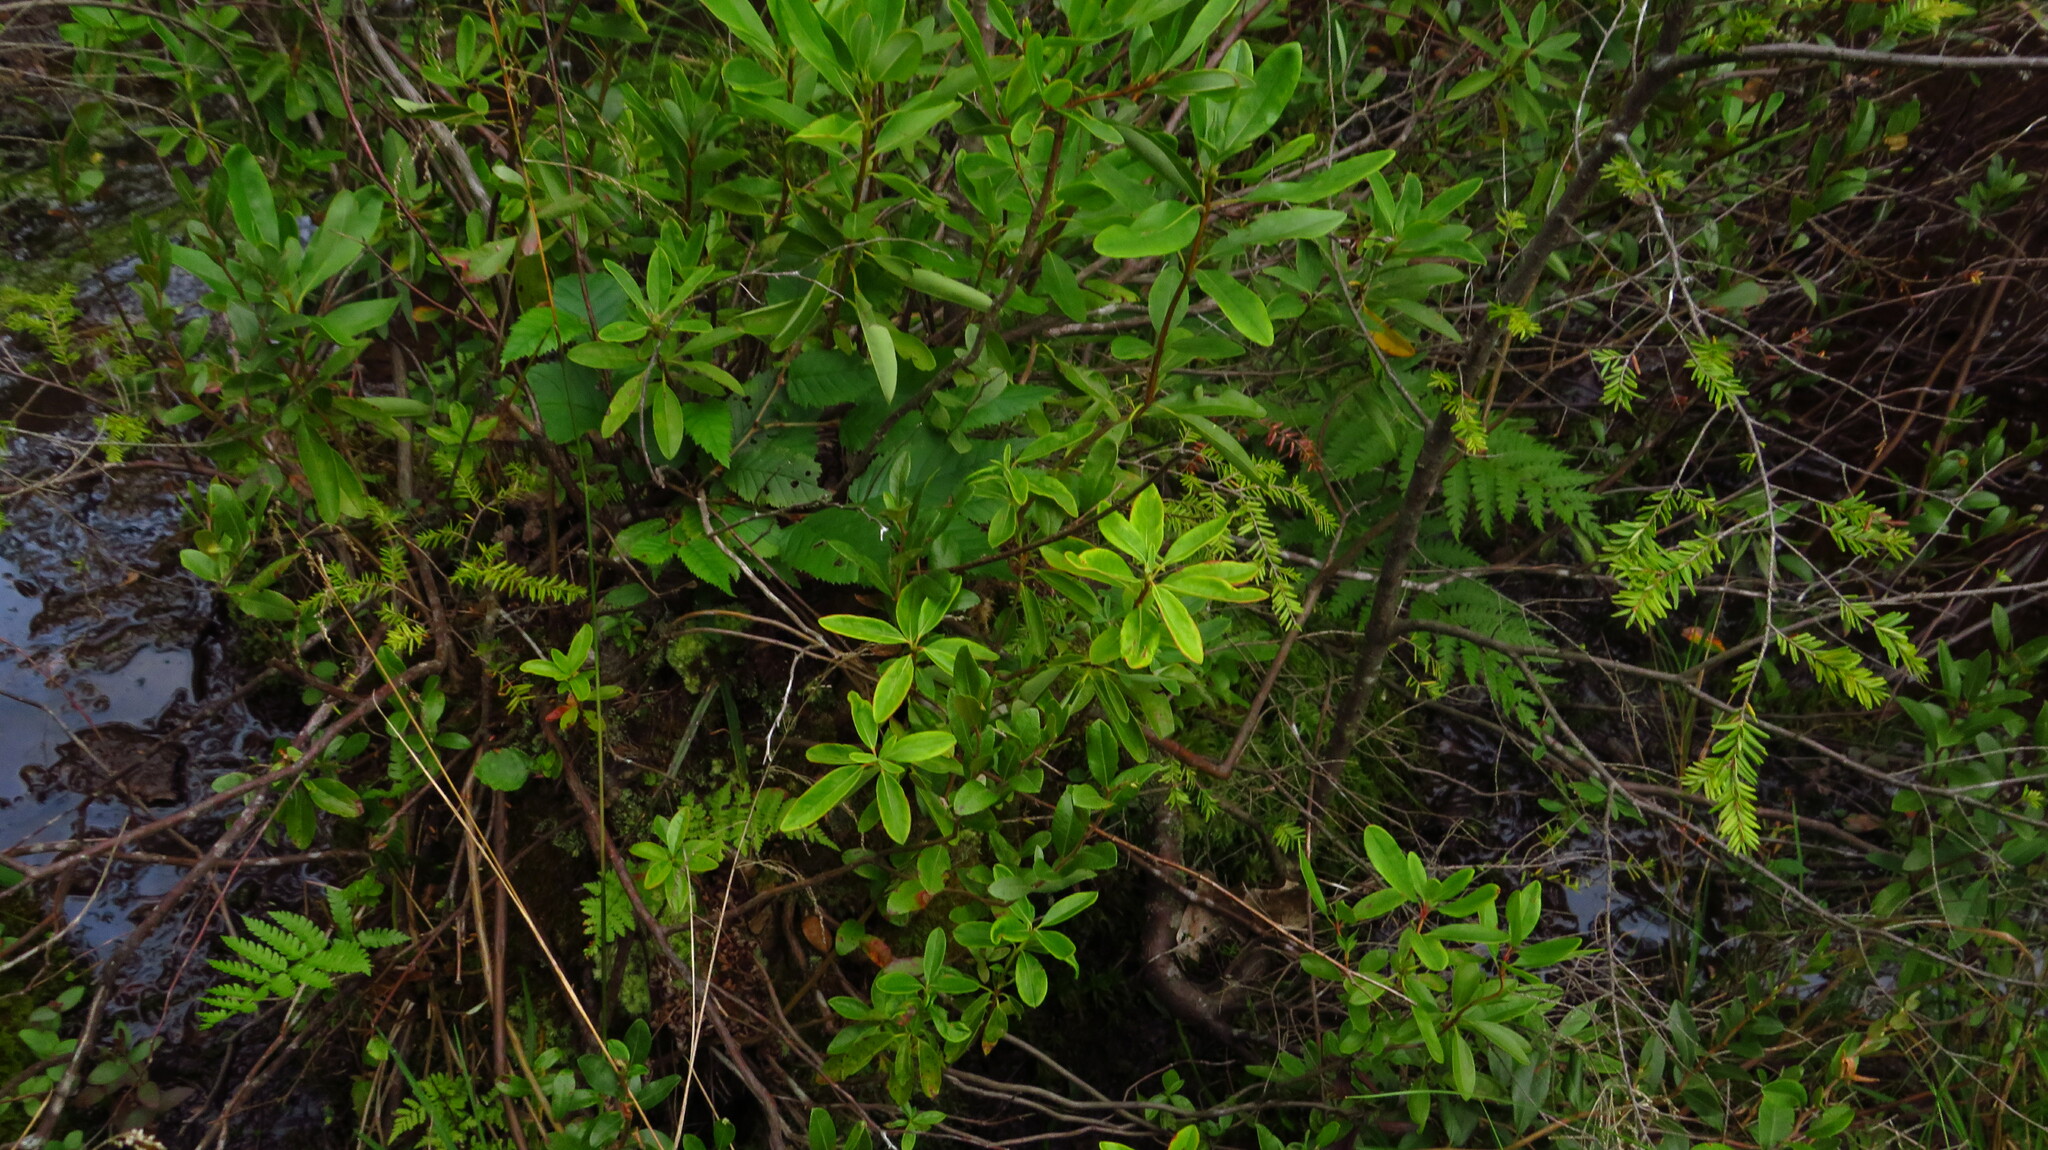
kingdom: Plantae
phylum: Tracheophyta
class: Magnoliopsida
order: Ericales
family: Ericaceae
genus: Kalmia
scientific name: Kalmia angustifolia
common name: Sheep-laurel
